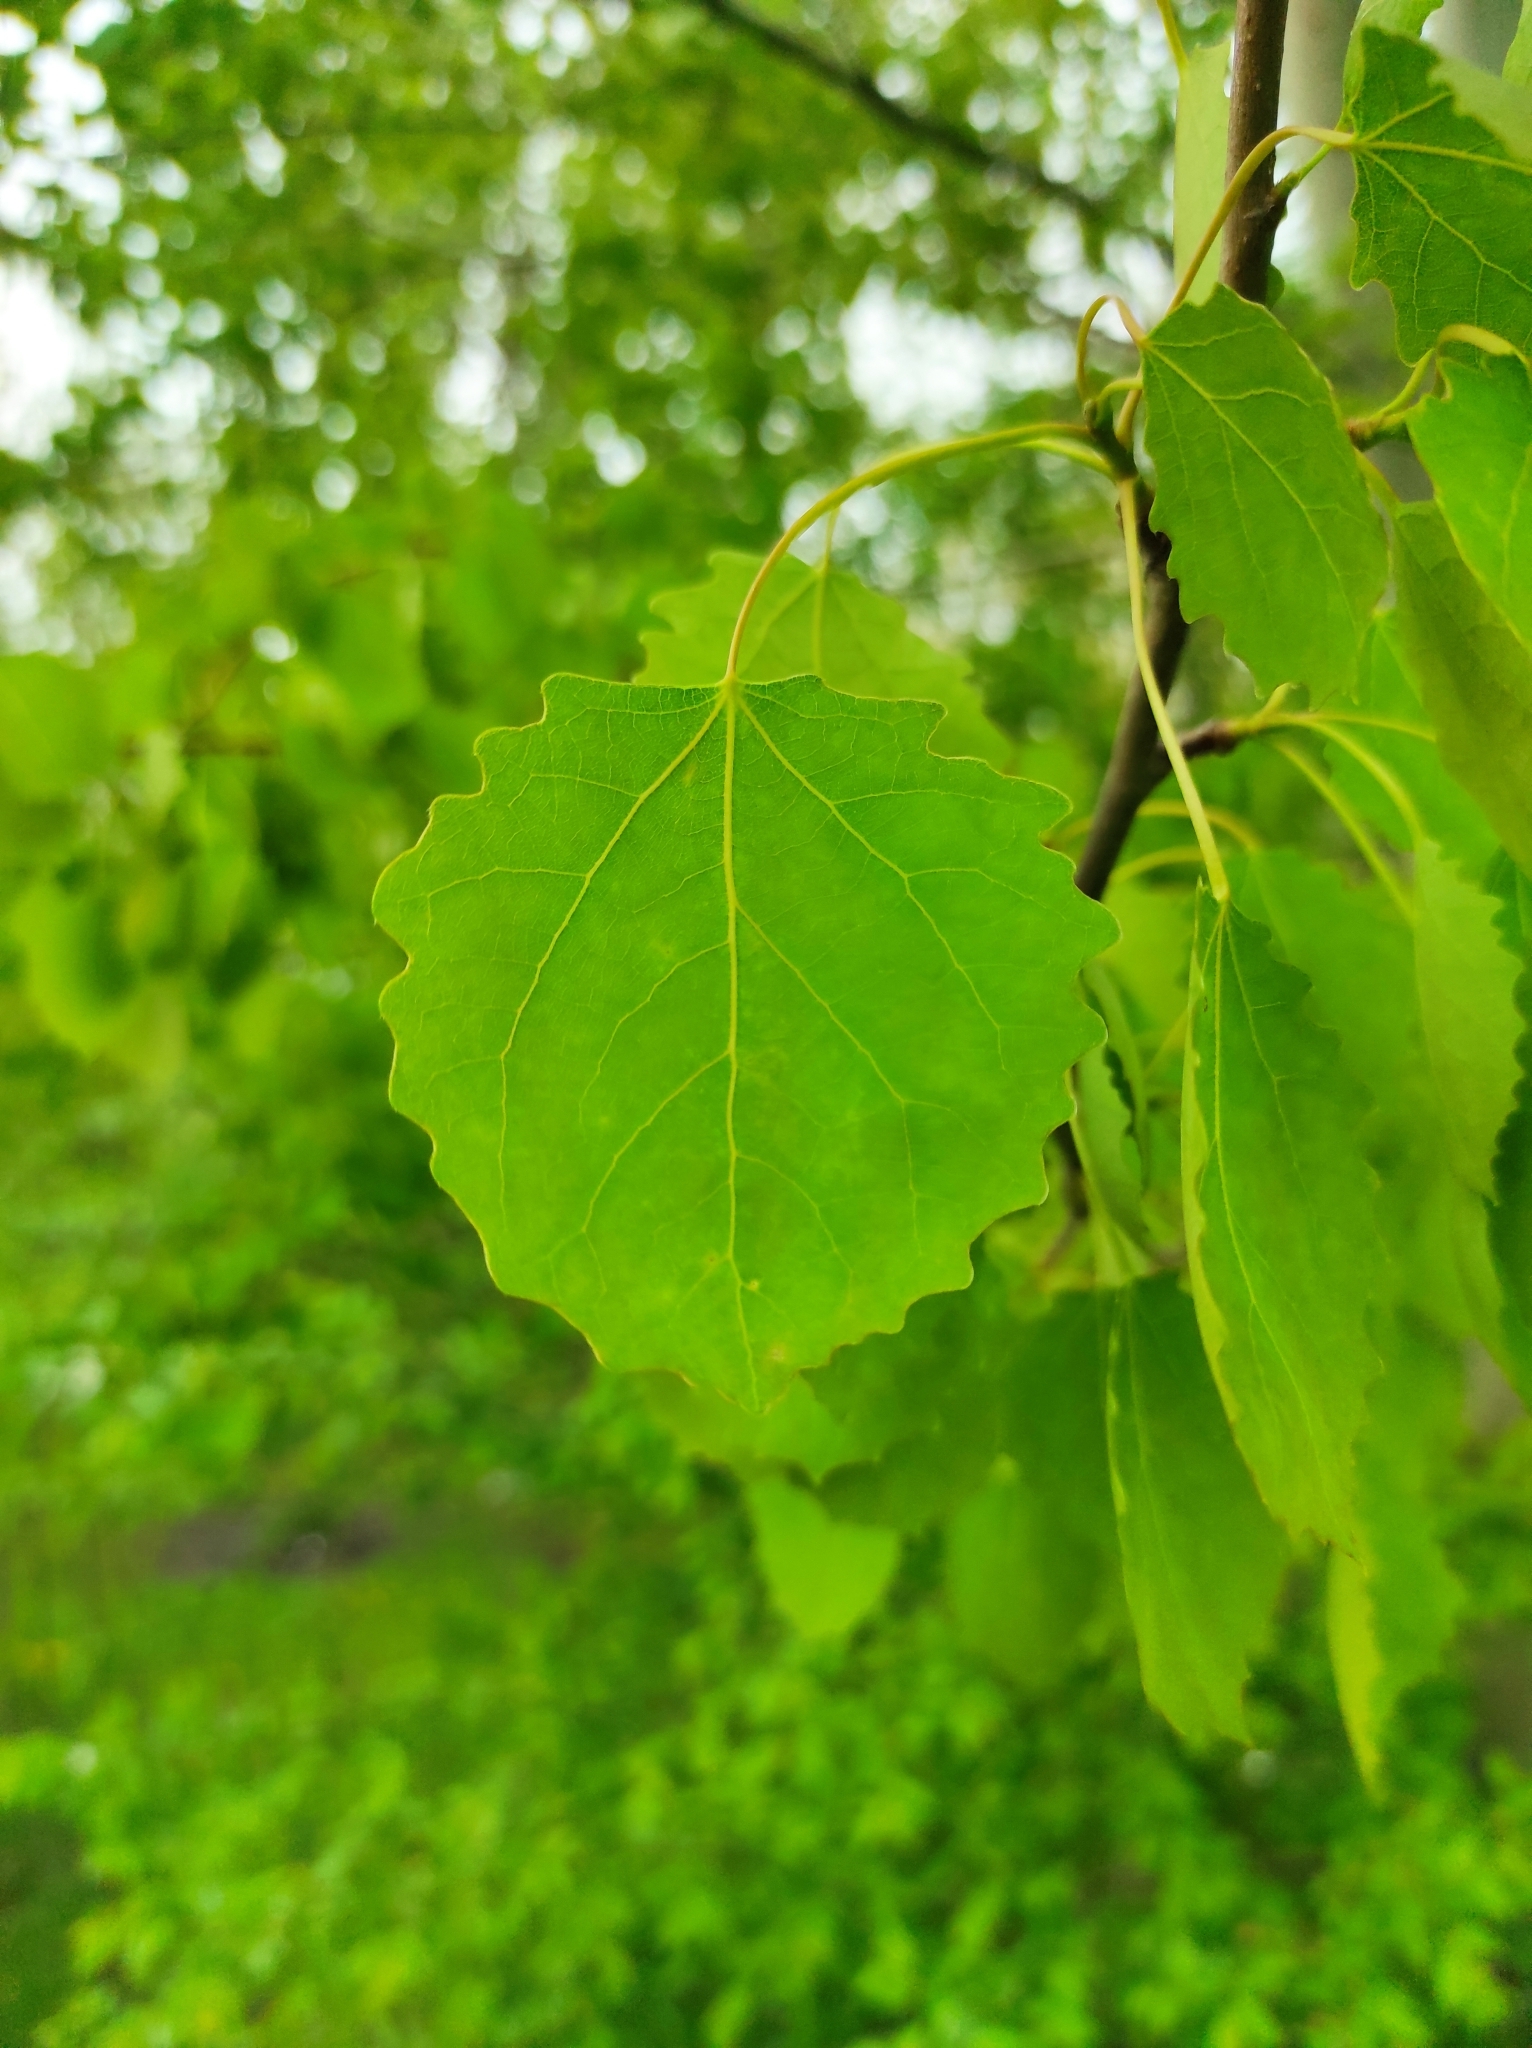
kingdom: Plantae
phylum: Tracheophyta
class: Magnoliopsida
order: Malpighiales
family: Salicaceae
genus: Populus
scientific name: Populus tremula
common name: European aspen
